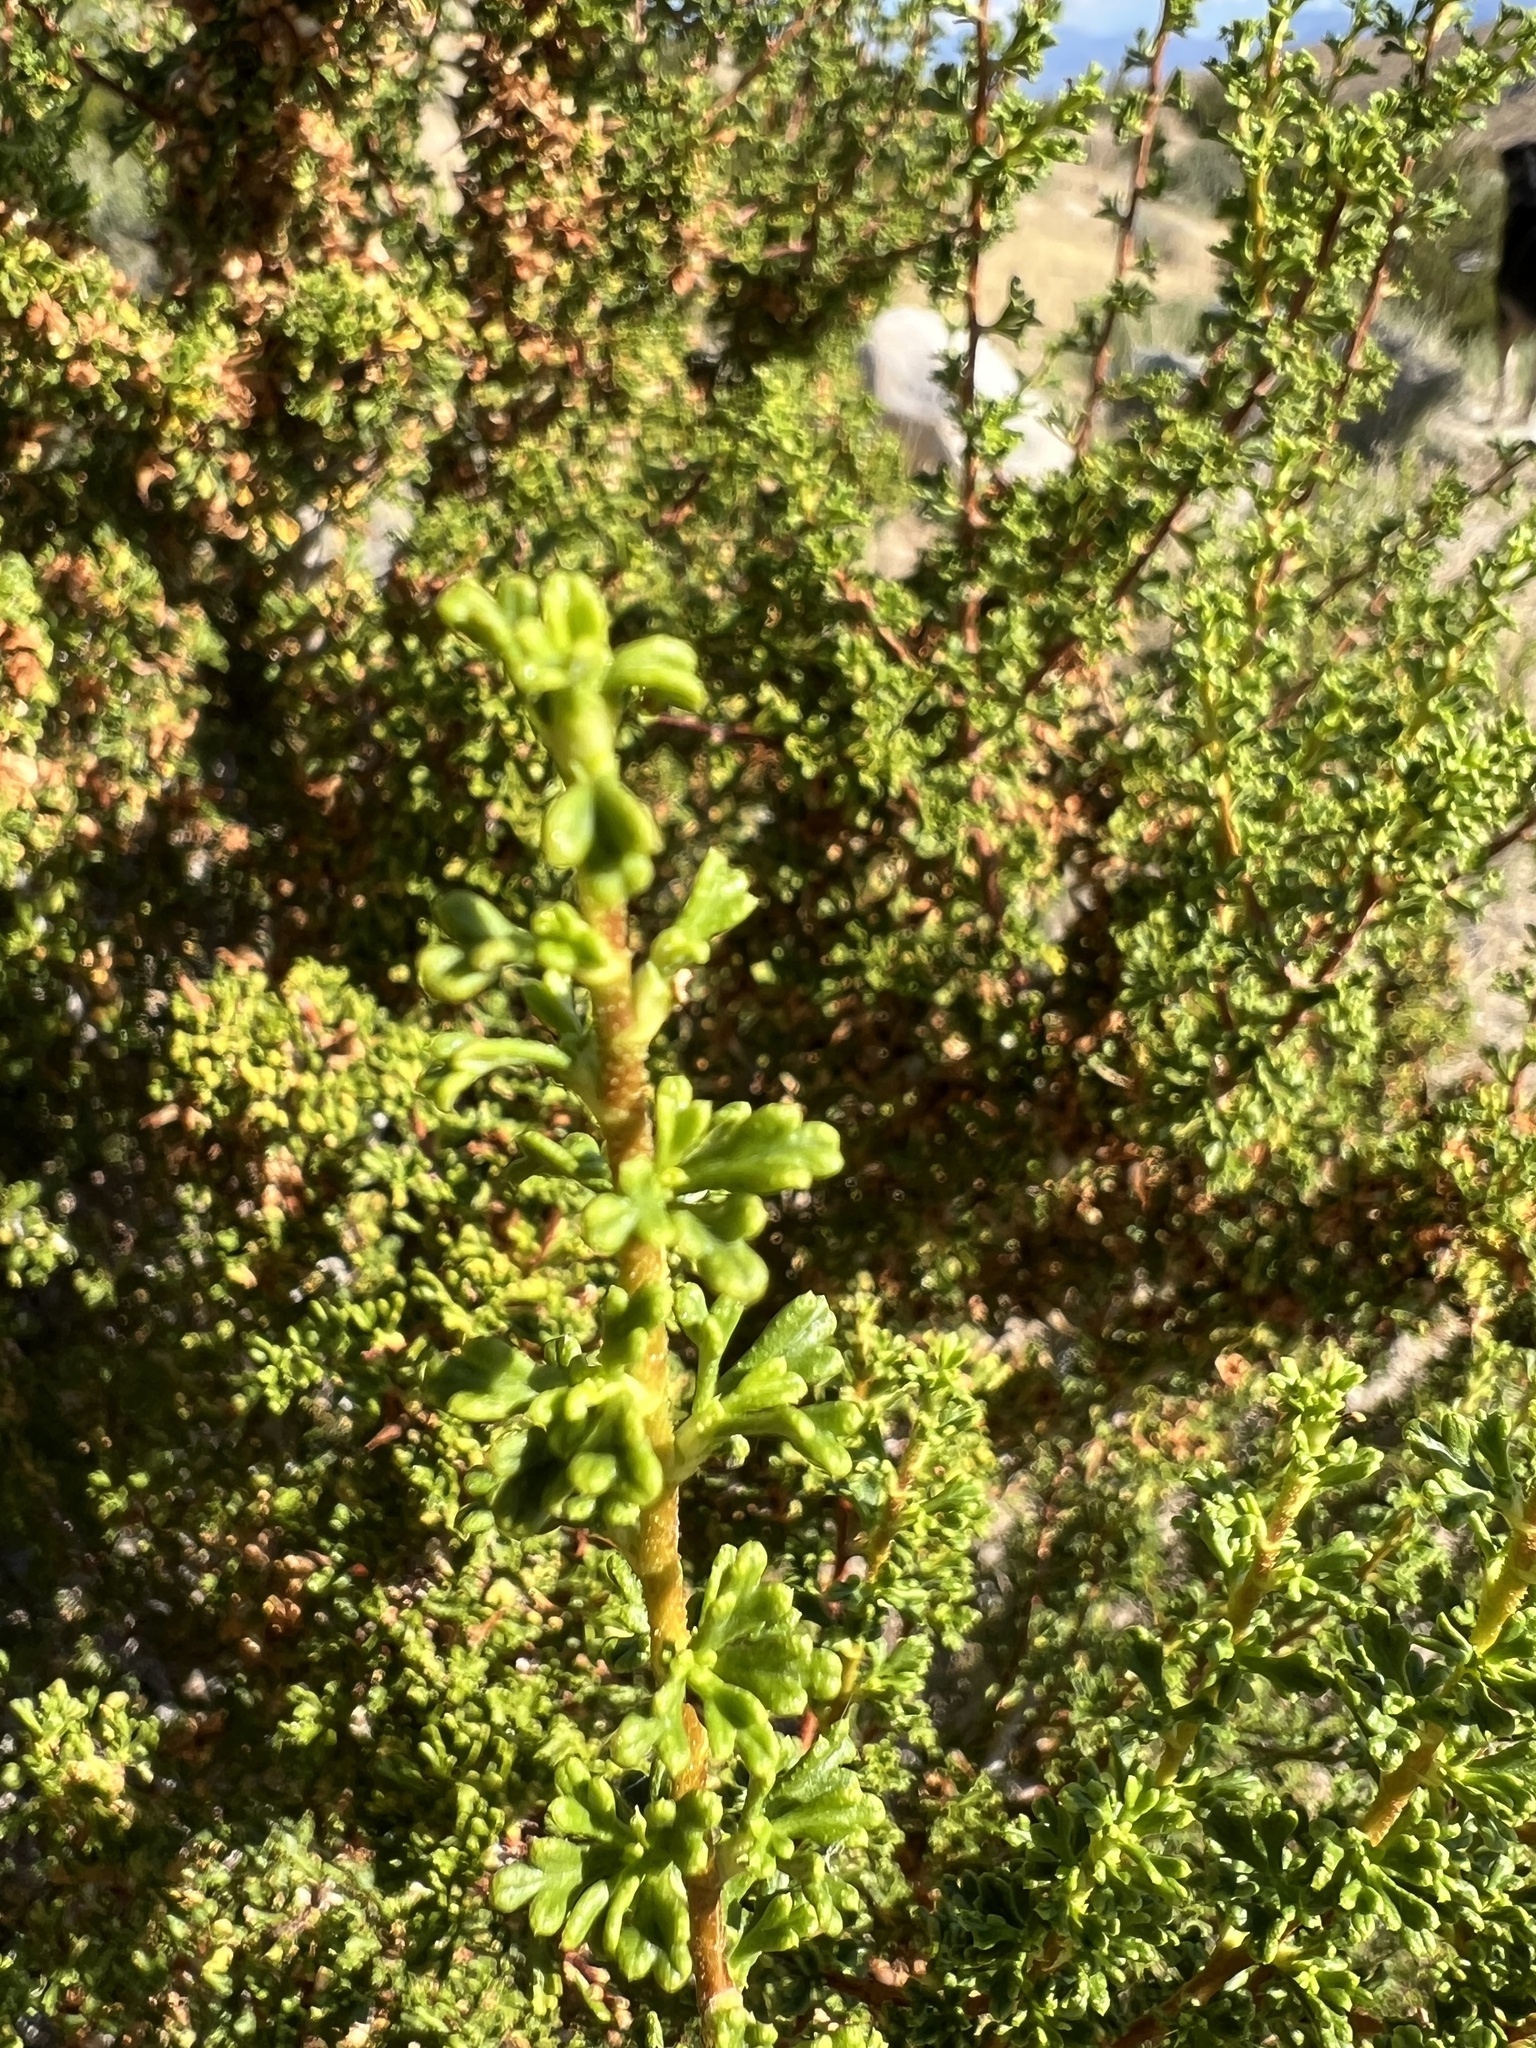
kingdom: Plantae
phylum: Tracheophyta
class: Magnoliopsida
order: Rosales
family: Rosaceae
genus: Purshia
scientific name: Purshia glandulosa
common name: Desert bitterbrush
